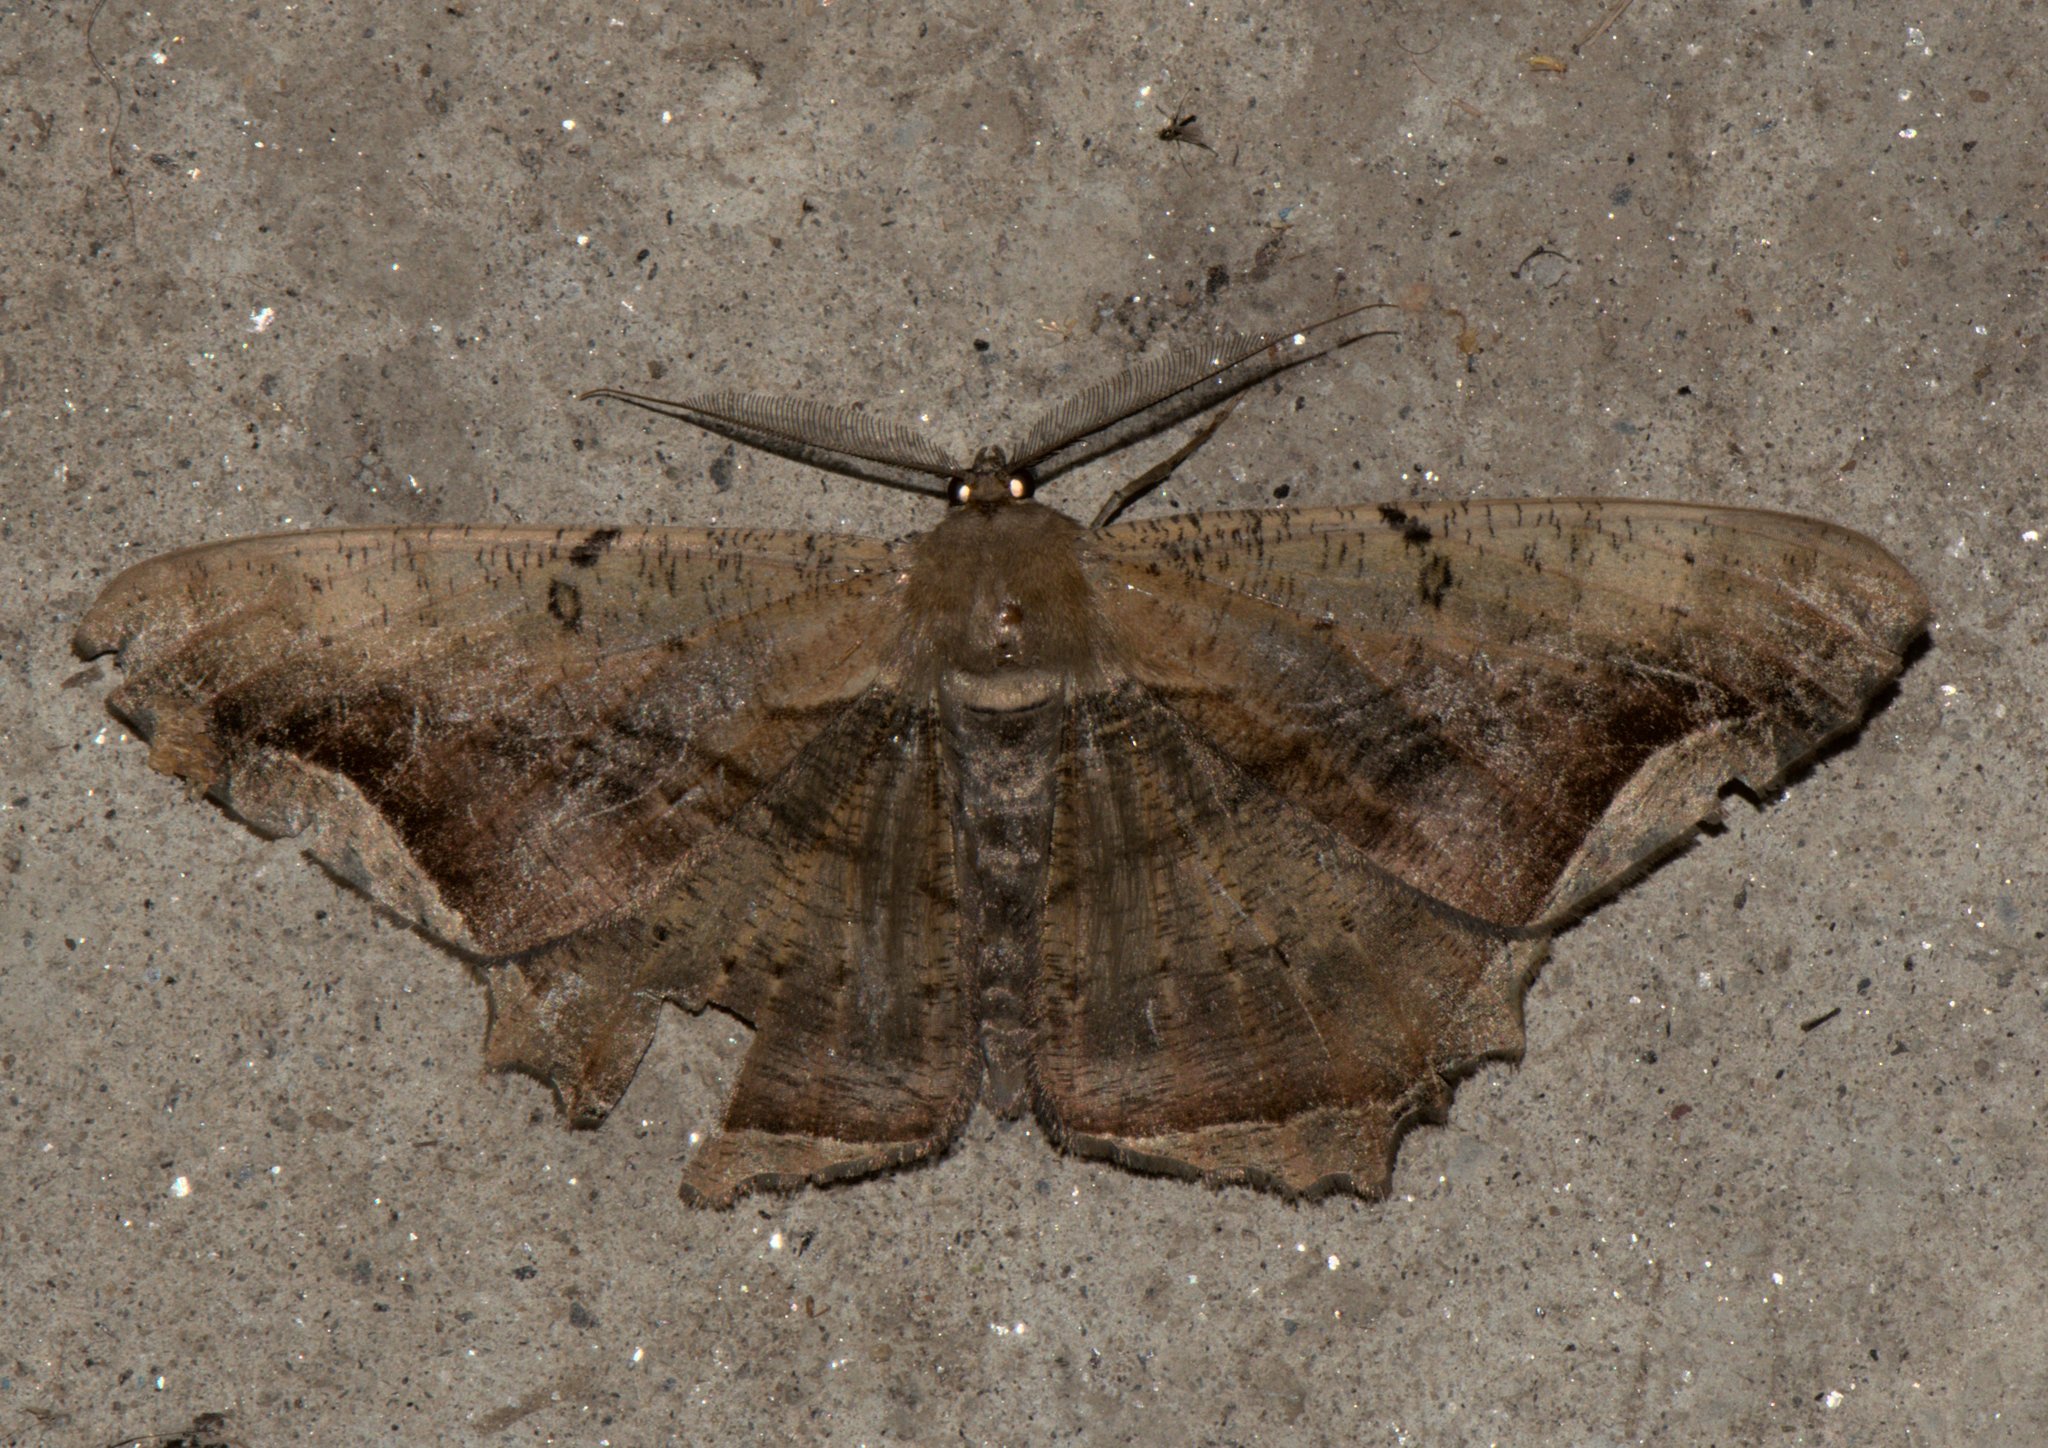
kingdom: Animalia
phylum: Arthropoda
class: Insecta
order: Lepidoptera
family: Geometridae
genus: Chorodna
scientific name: Chorodna adumbrata
